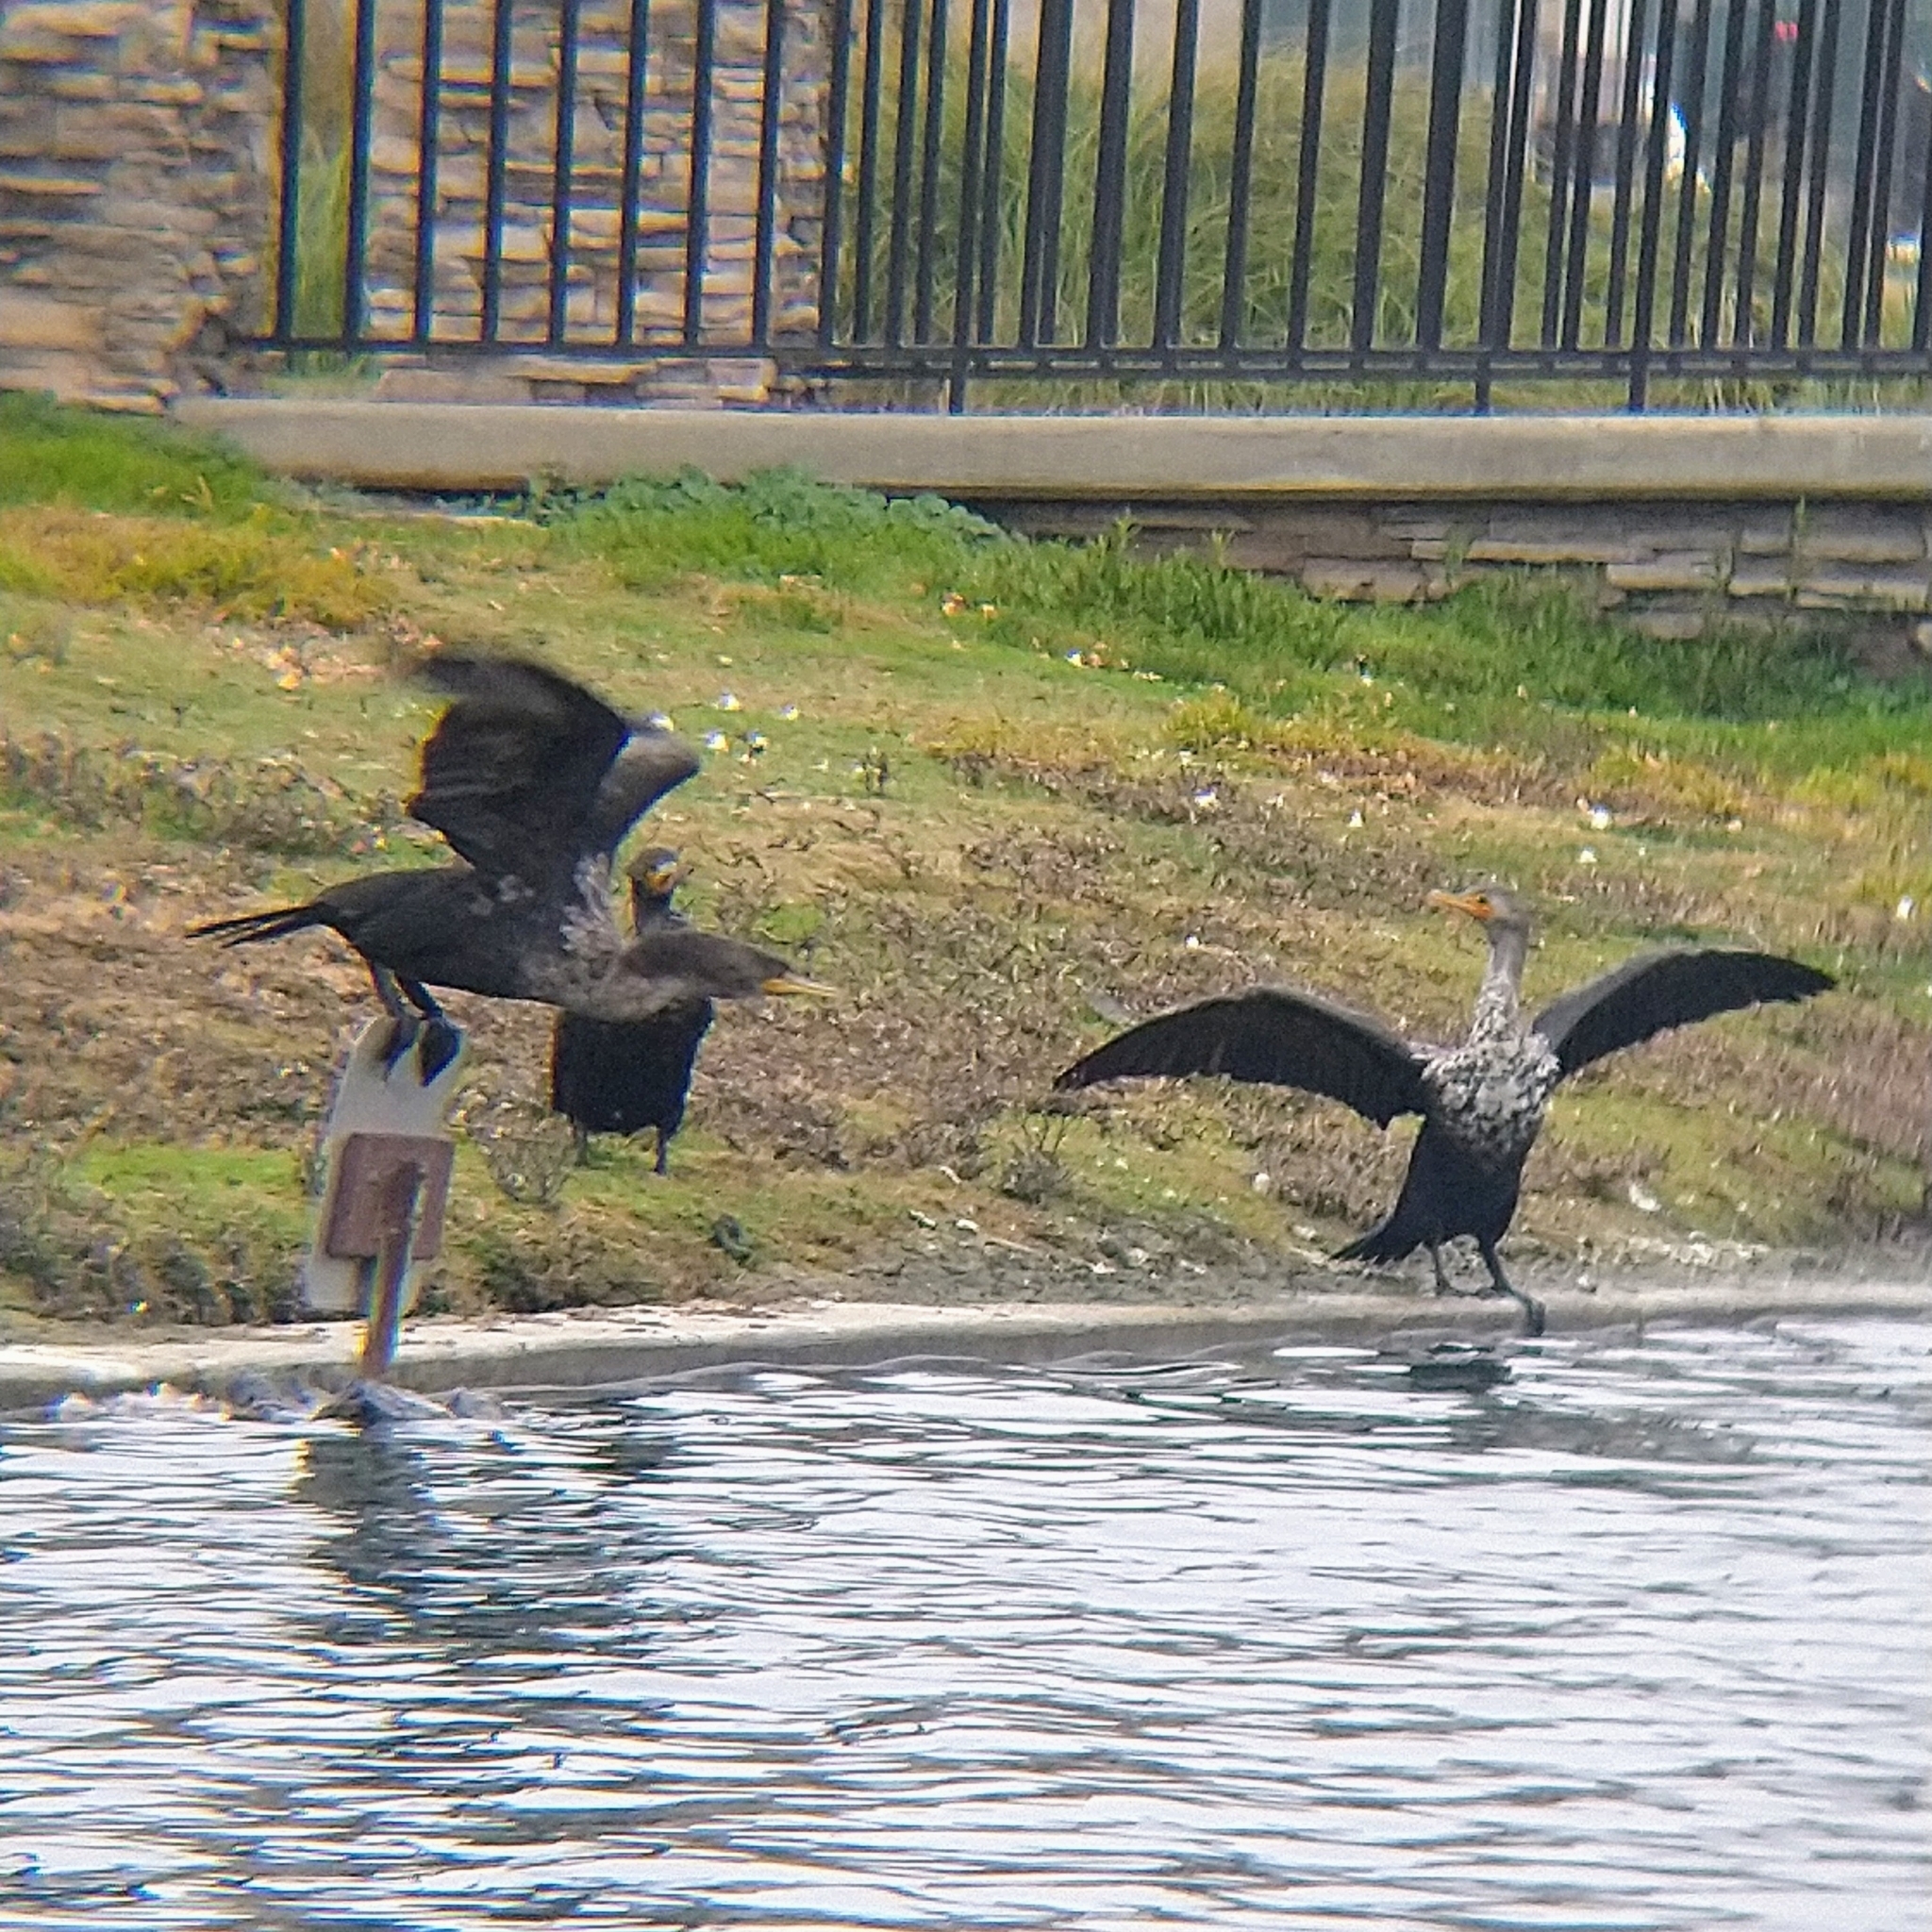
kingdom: Animalia
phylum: Chordata
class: Aves
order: Suliformes
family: Phalacrocoracidae
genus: Phalacrocorax
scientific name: Phalacrocorax auritus
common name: Double-crested cormorant
